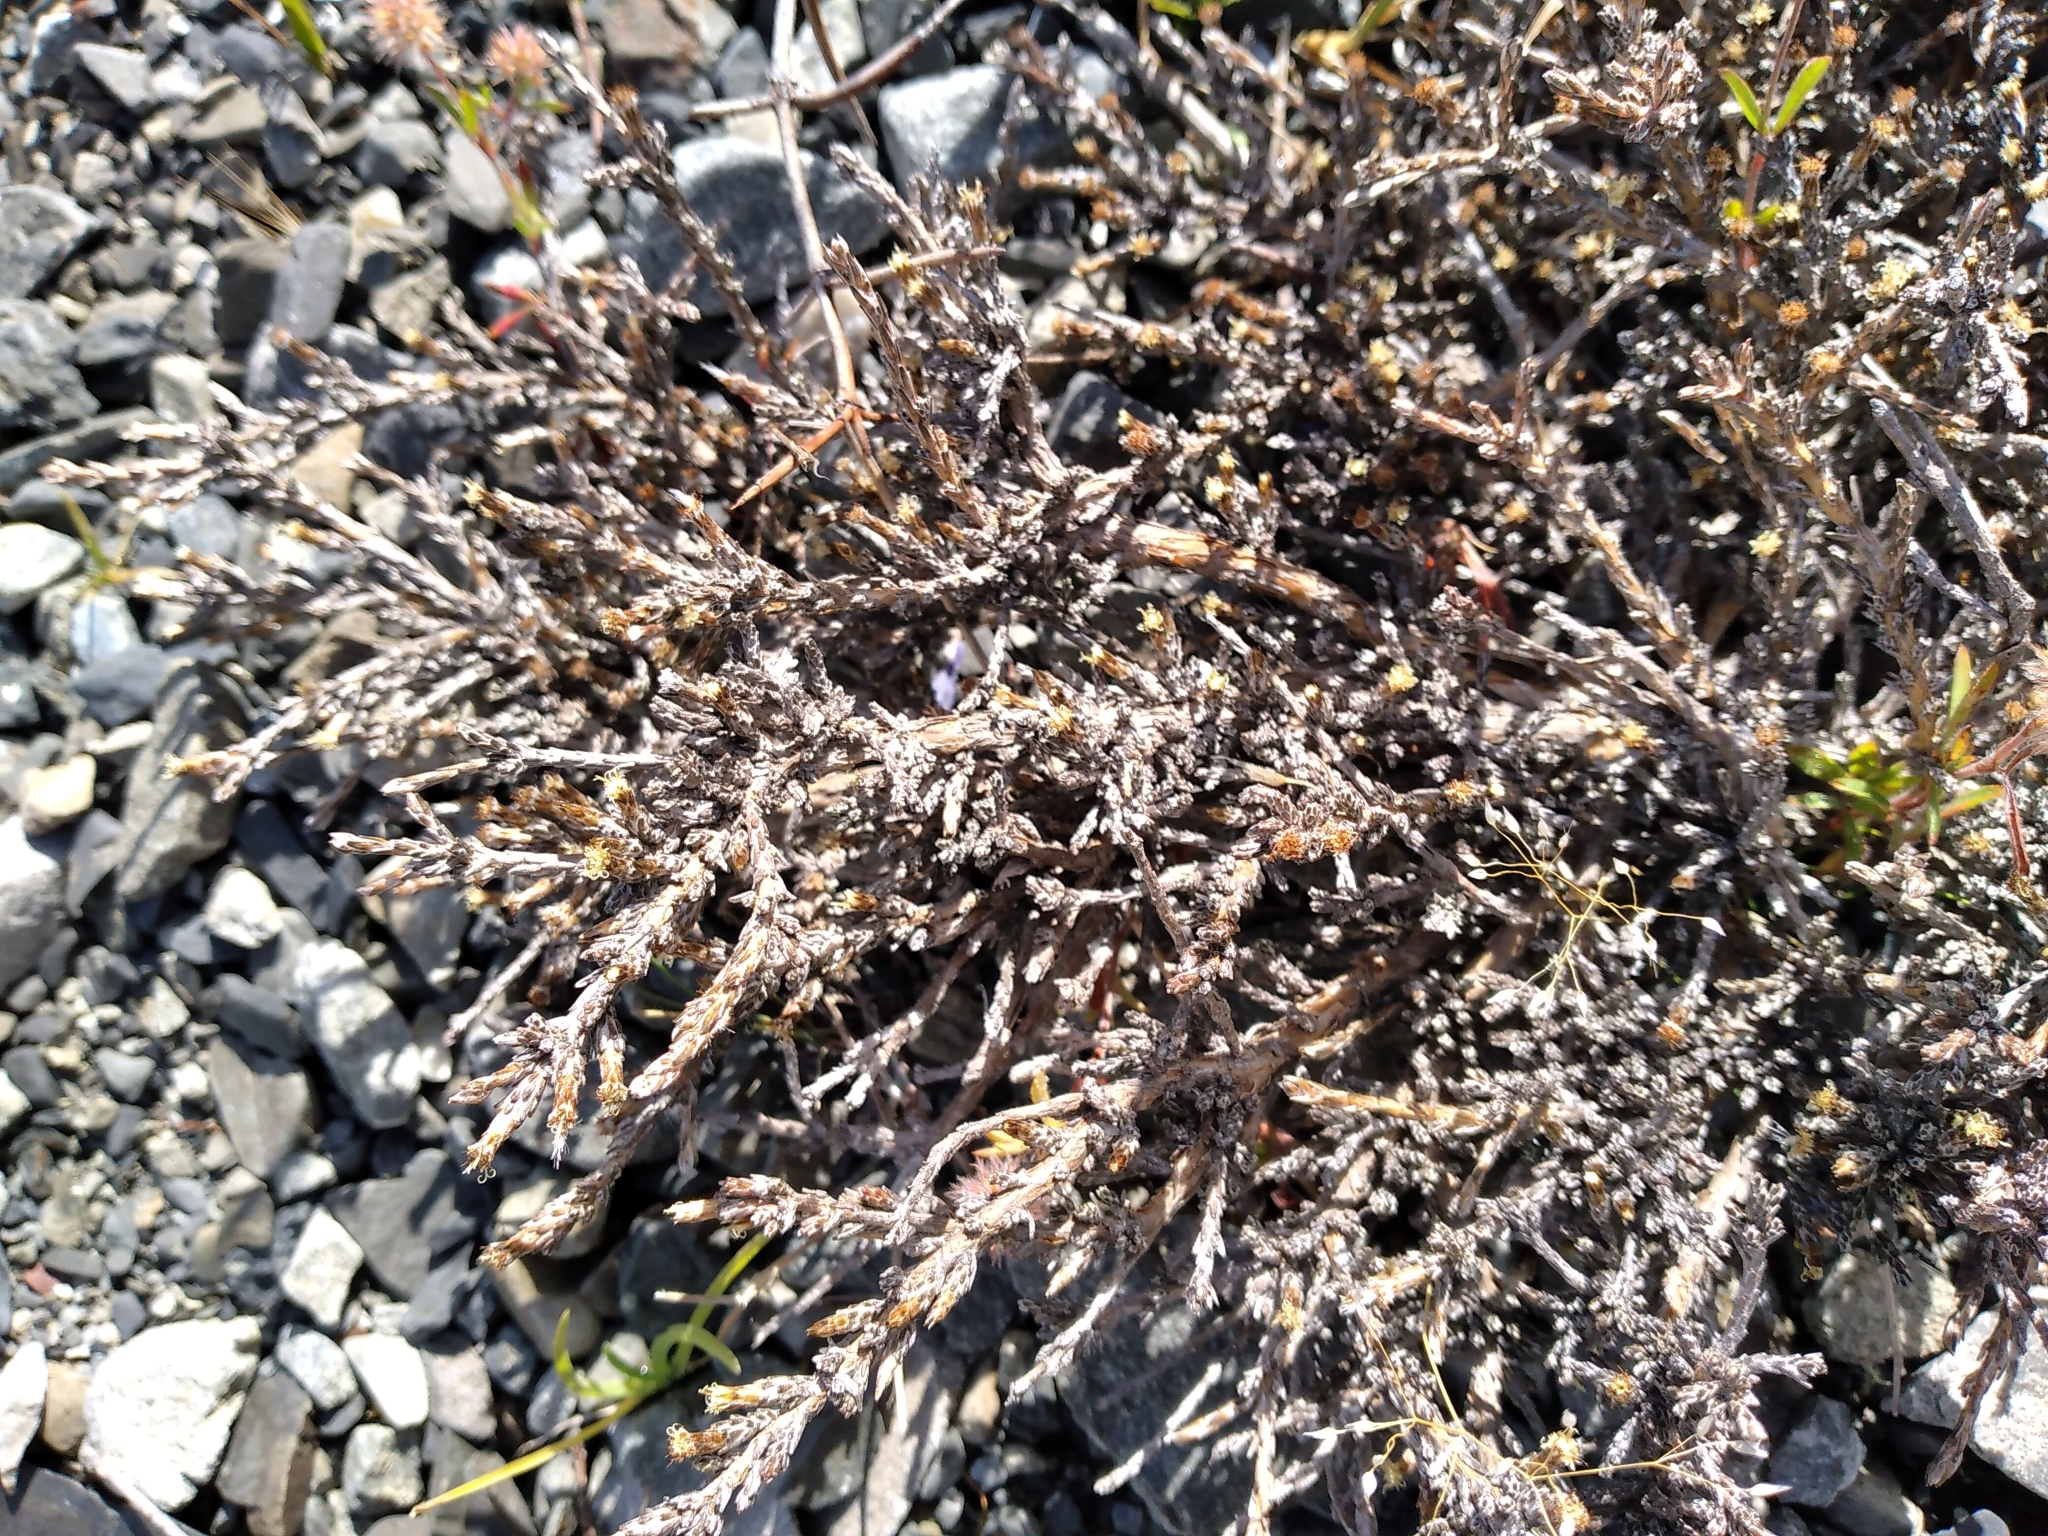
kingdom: Plantae
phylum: Tracheophyta
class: Magnoliopsida
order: Asterales
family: Asteraceae
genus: Ozothamnus
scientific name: Ozothamnus depressus
